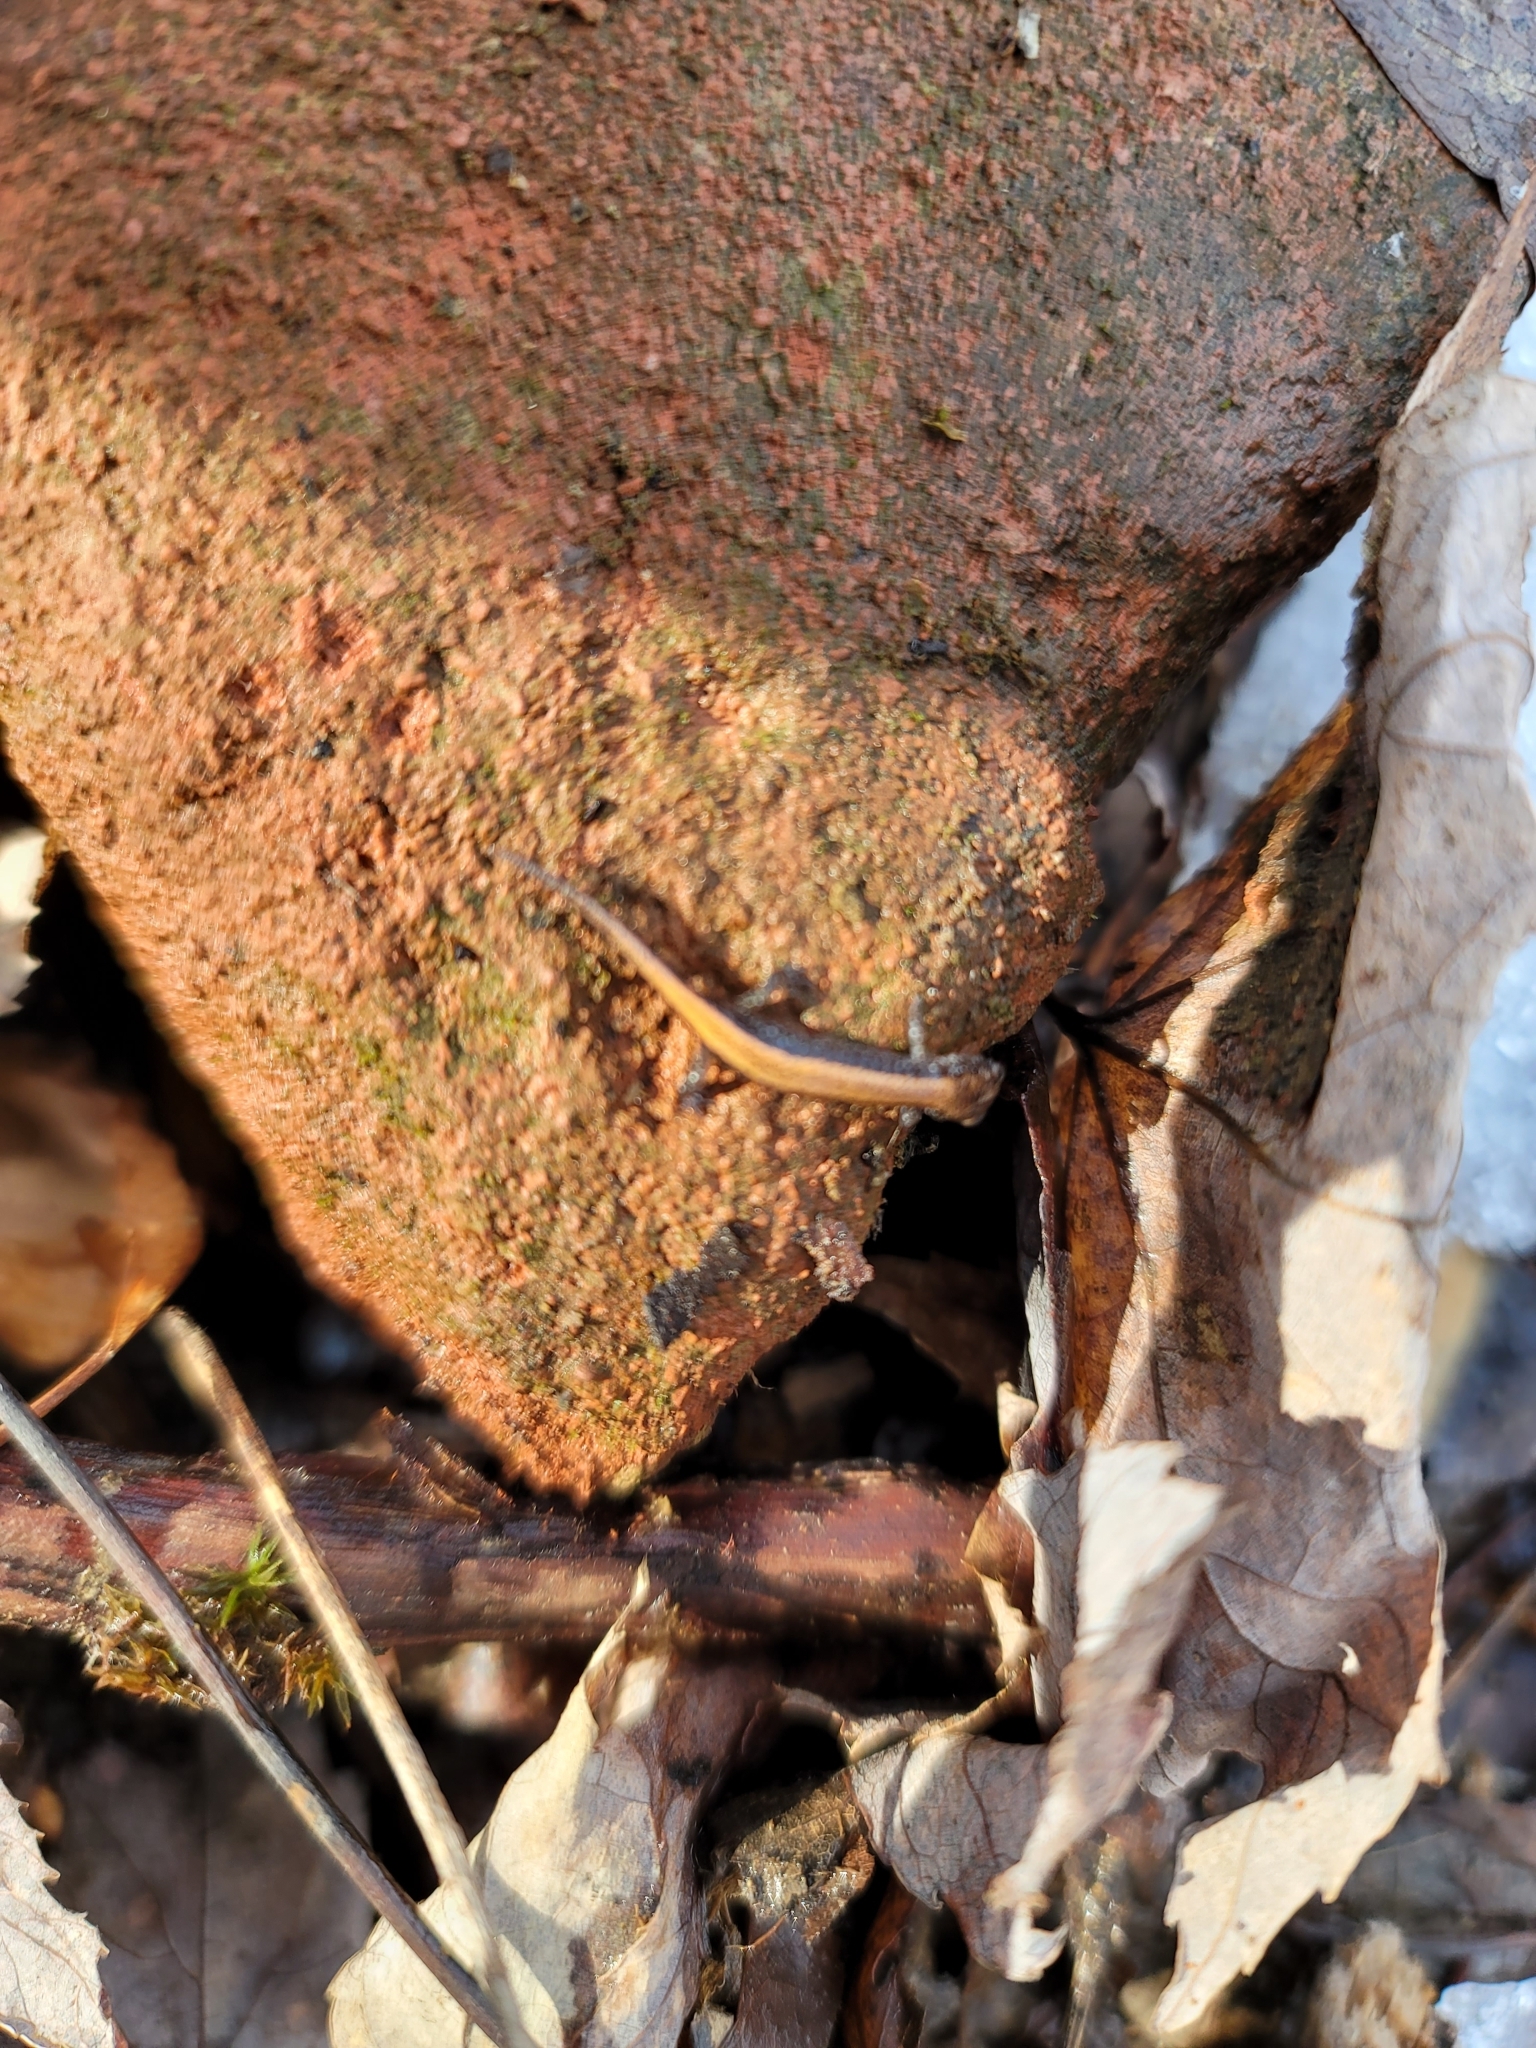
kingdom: Animalia
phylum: Chordata
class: Amphibia
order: Caudata
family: Plethodontidae
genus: Plethodon
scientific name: Plethodon cinereus
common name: Redback salamander
